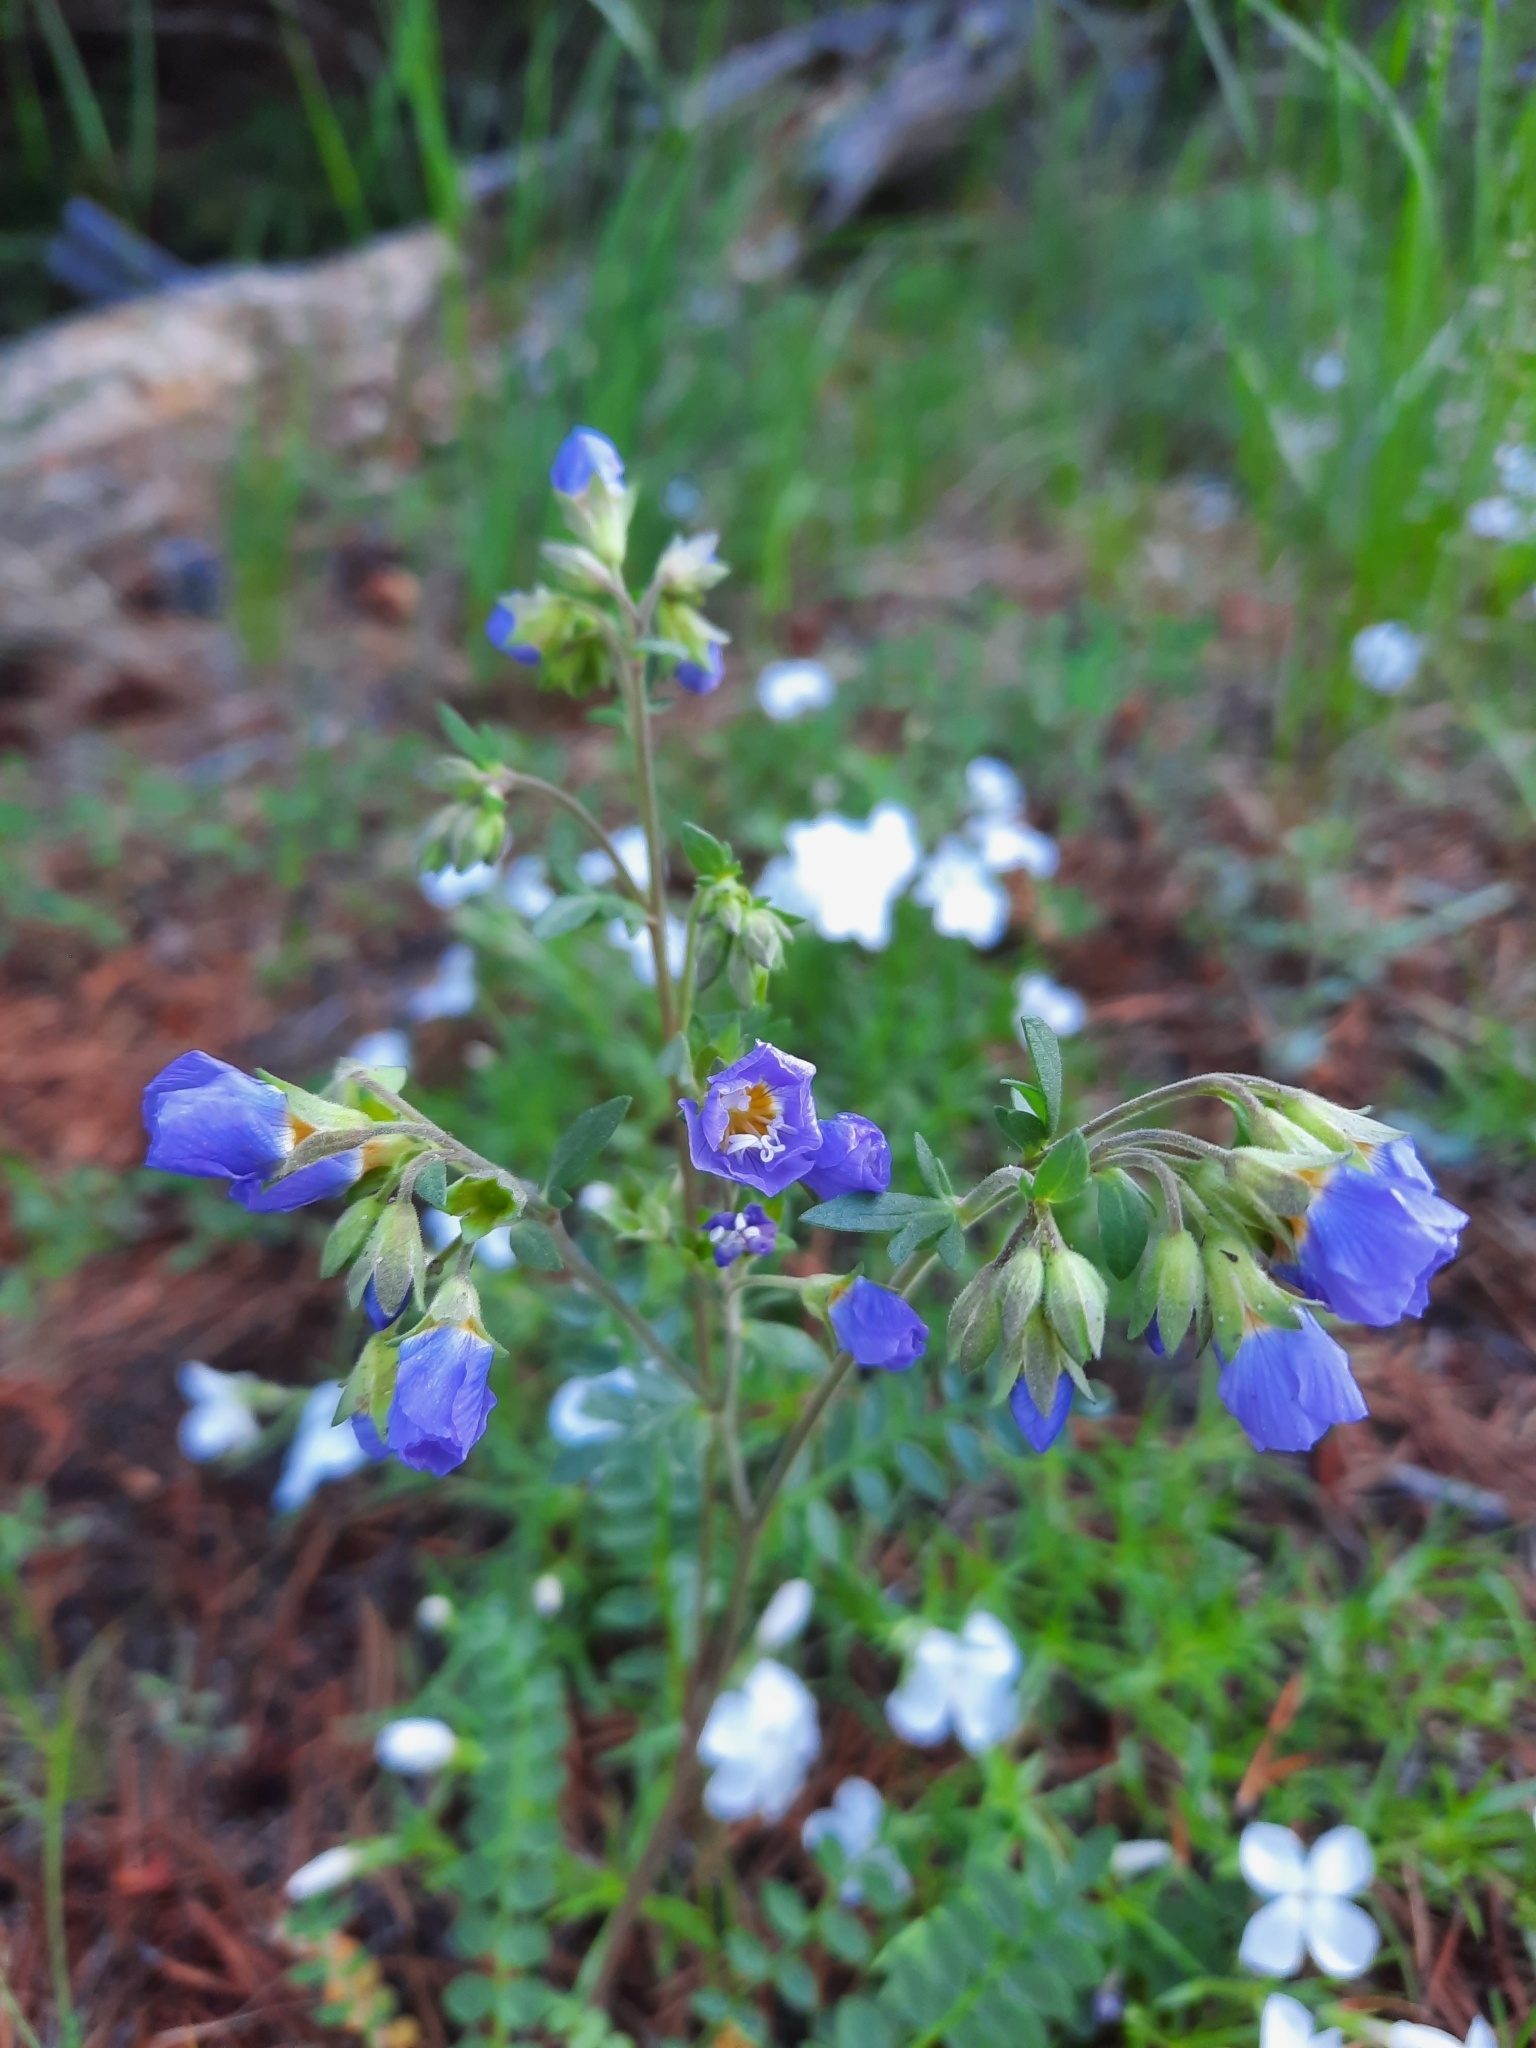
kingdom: Plantae
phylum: Tracheophyta
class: Magnoliopsida
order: Ericales
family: Polemoniaceae
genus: Polemonium
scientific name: Polemonium pulcherrimum
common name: Short jacob's-ladder
